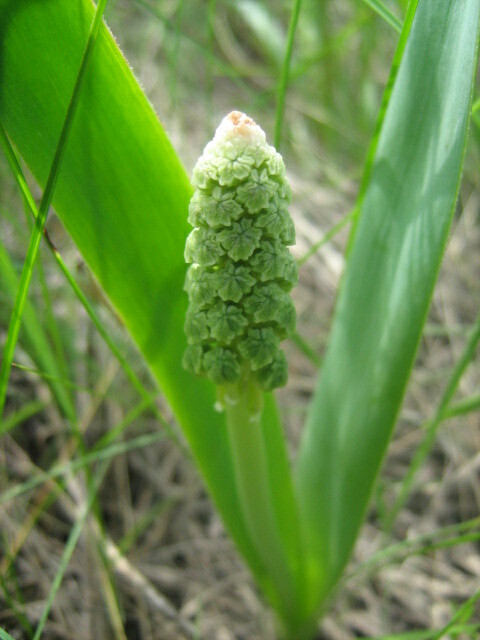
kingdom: Plantae
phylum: Tracheophyta
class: Liliopsida
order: Asparagales
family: Asparagaceae
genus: Bellevalia
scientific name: Bellevalia speciosa
